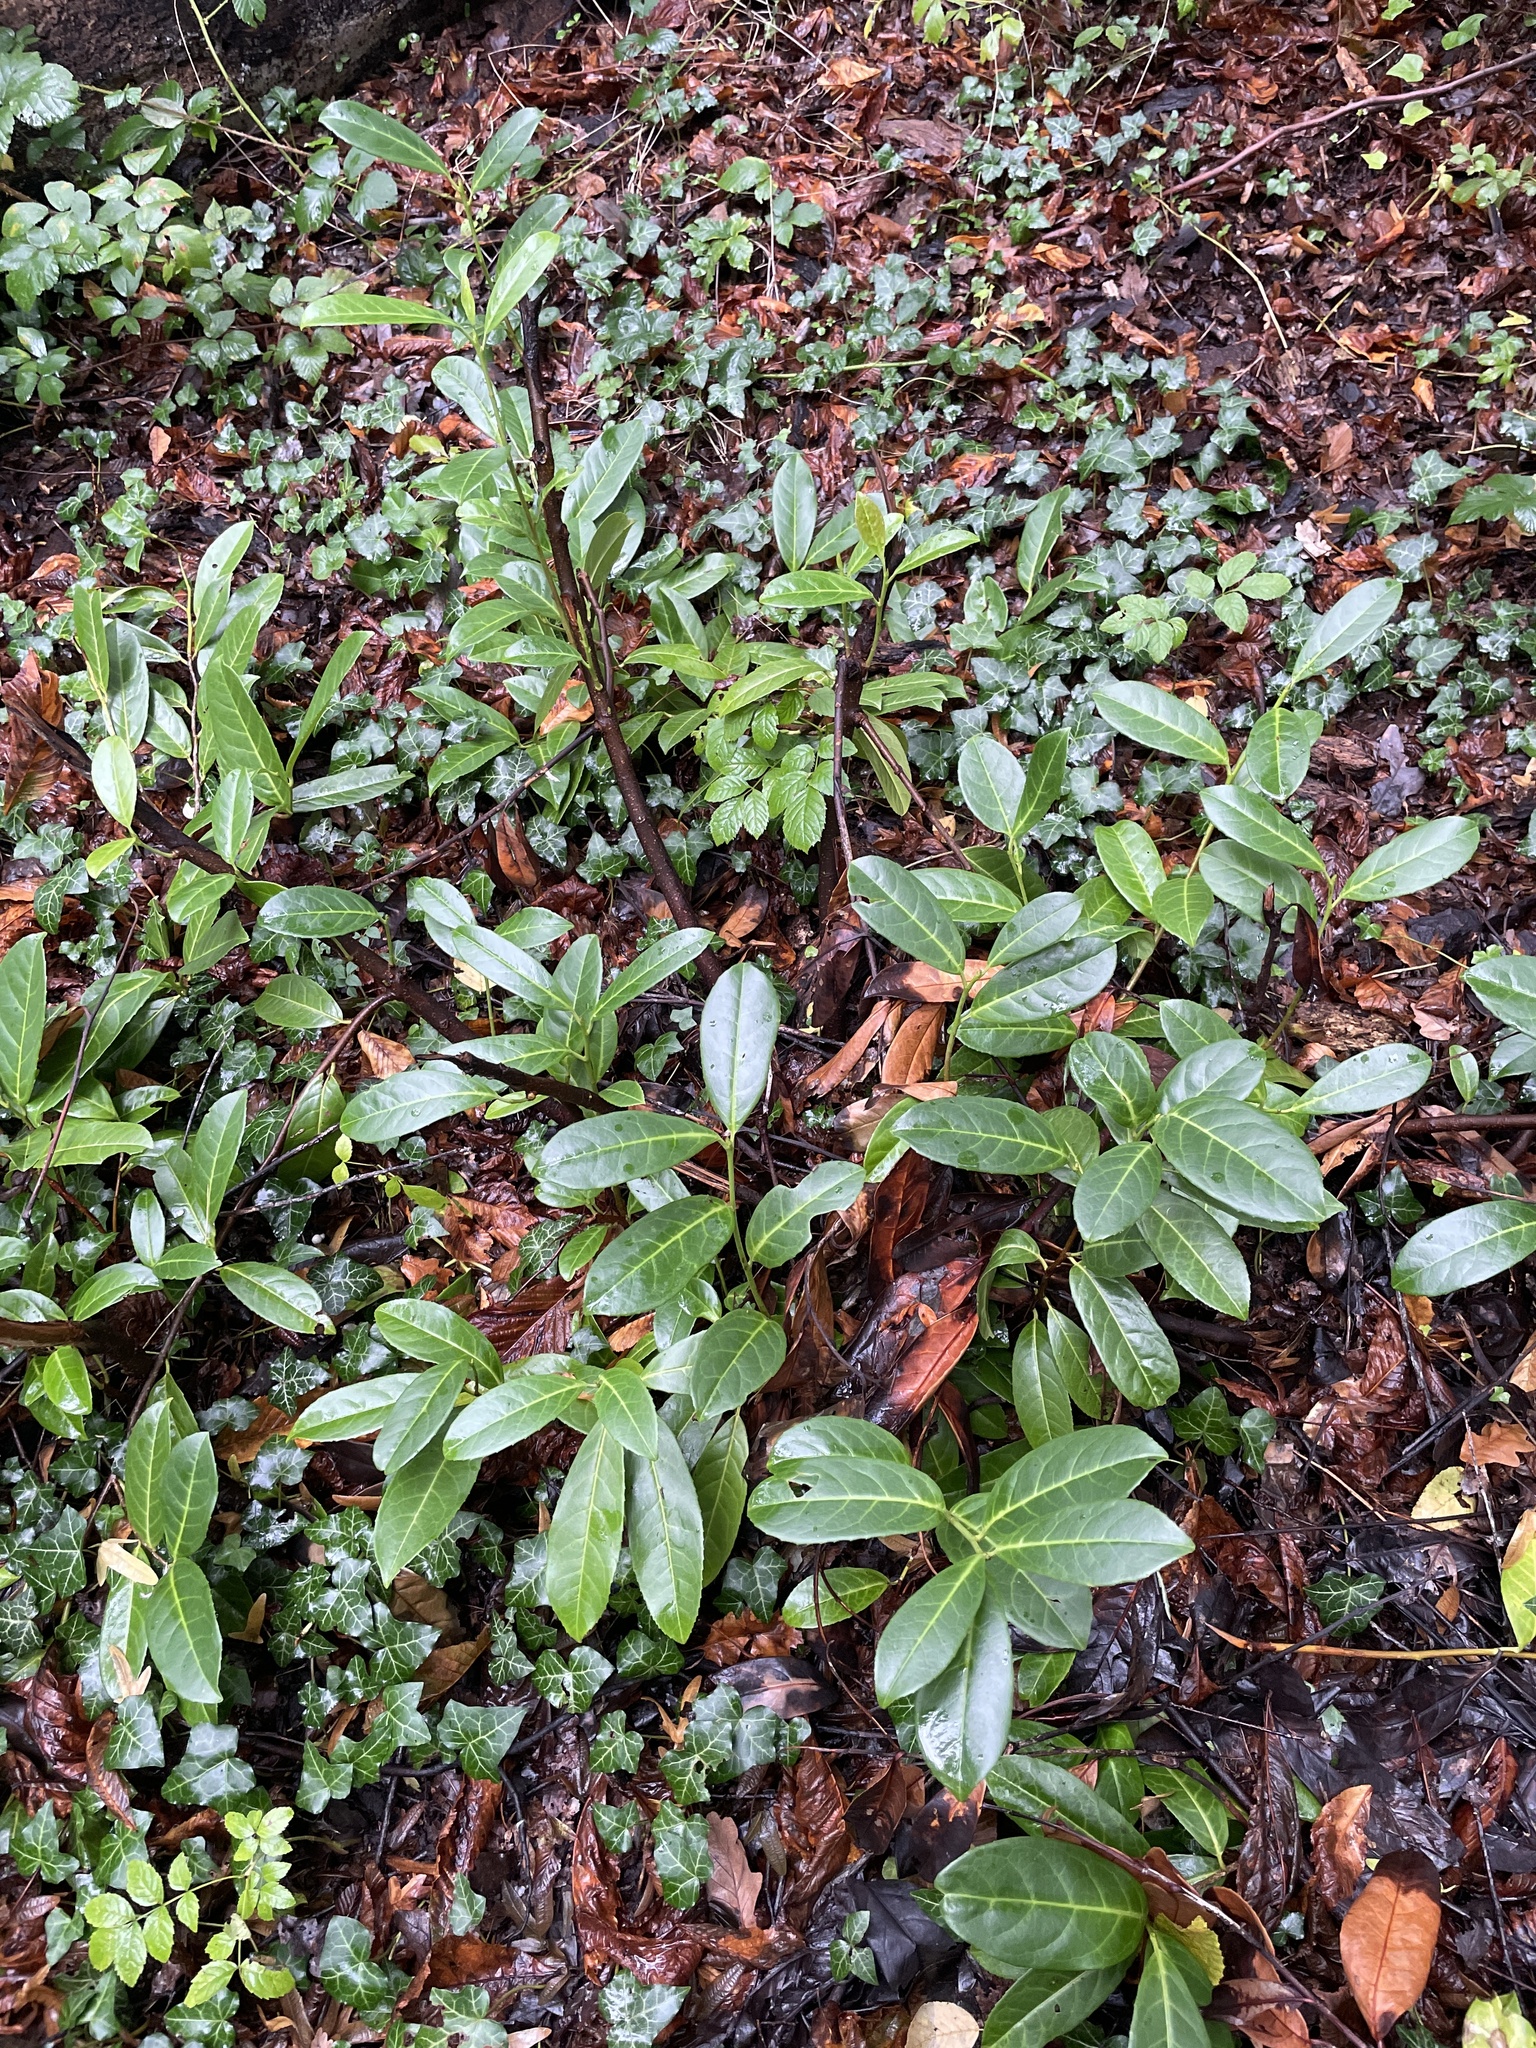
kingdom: Plantae
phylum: Tracheophyta
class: Magnoliopsida
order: Rosales
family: Rosaceae
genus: Prunus
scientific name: Prunus laurocerasus
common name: Cherry laurel
